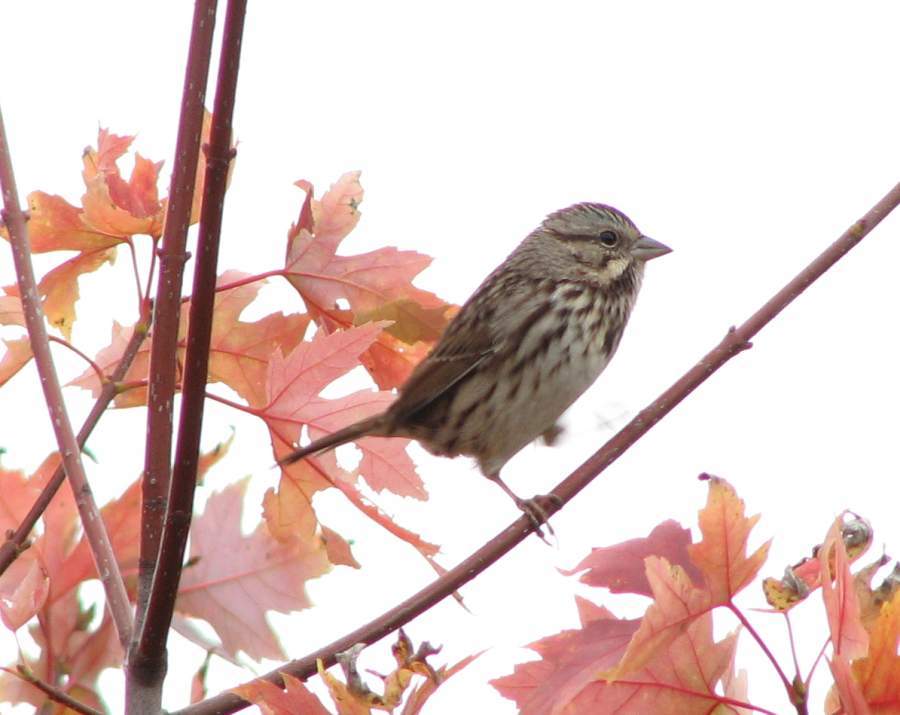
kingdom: Animalia
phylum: Chordata
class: Aves
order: Passeriformes
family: Passerellidae
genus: Melospiza
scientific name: Melospiza melodia
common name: Song sparrow
